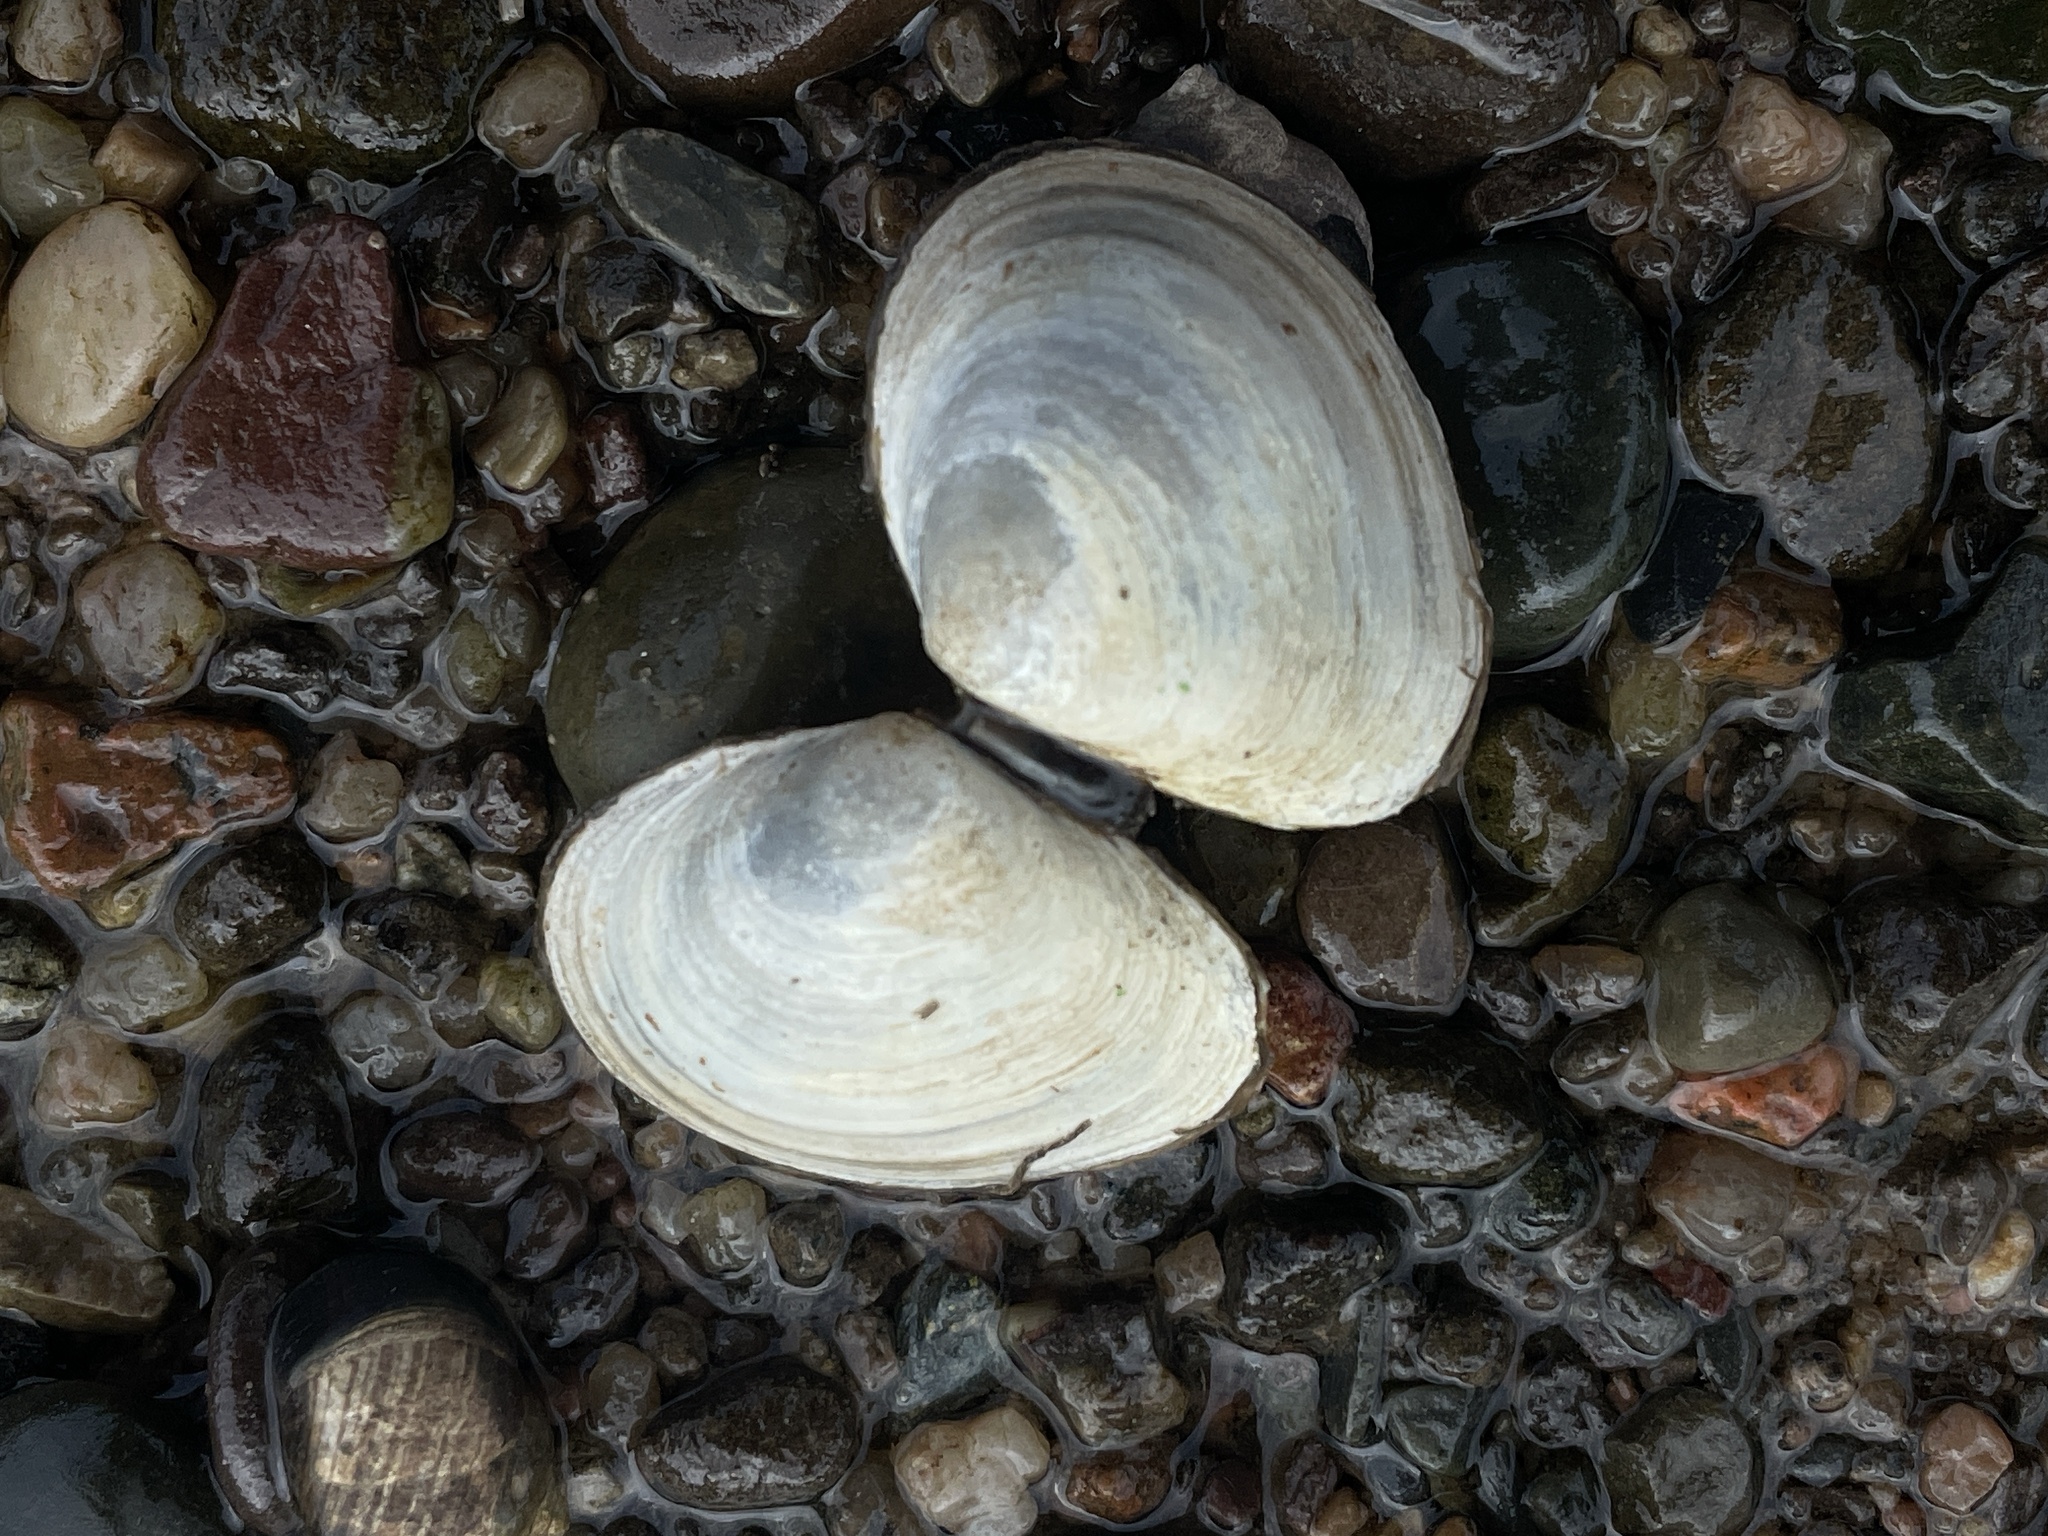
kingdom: Animalia
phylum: Mollusca
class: Bivalvia
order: Cardiida
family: Tellinidae
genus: Macoma
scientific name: Macoma petalum
